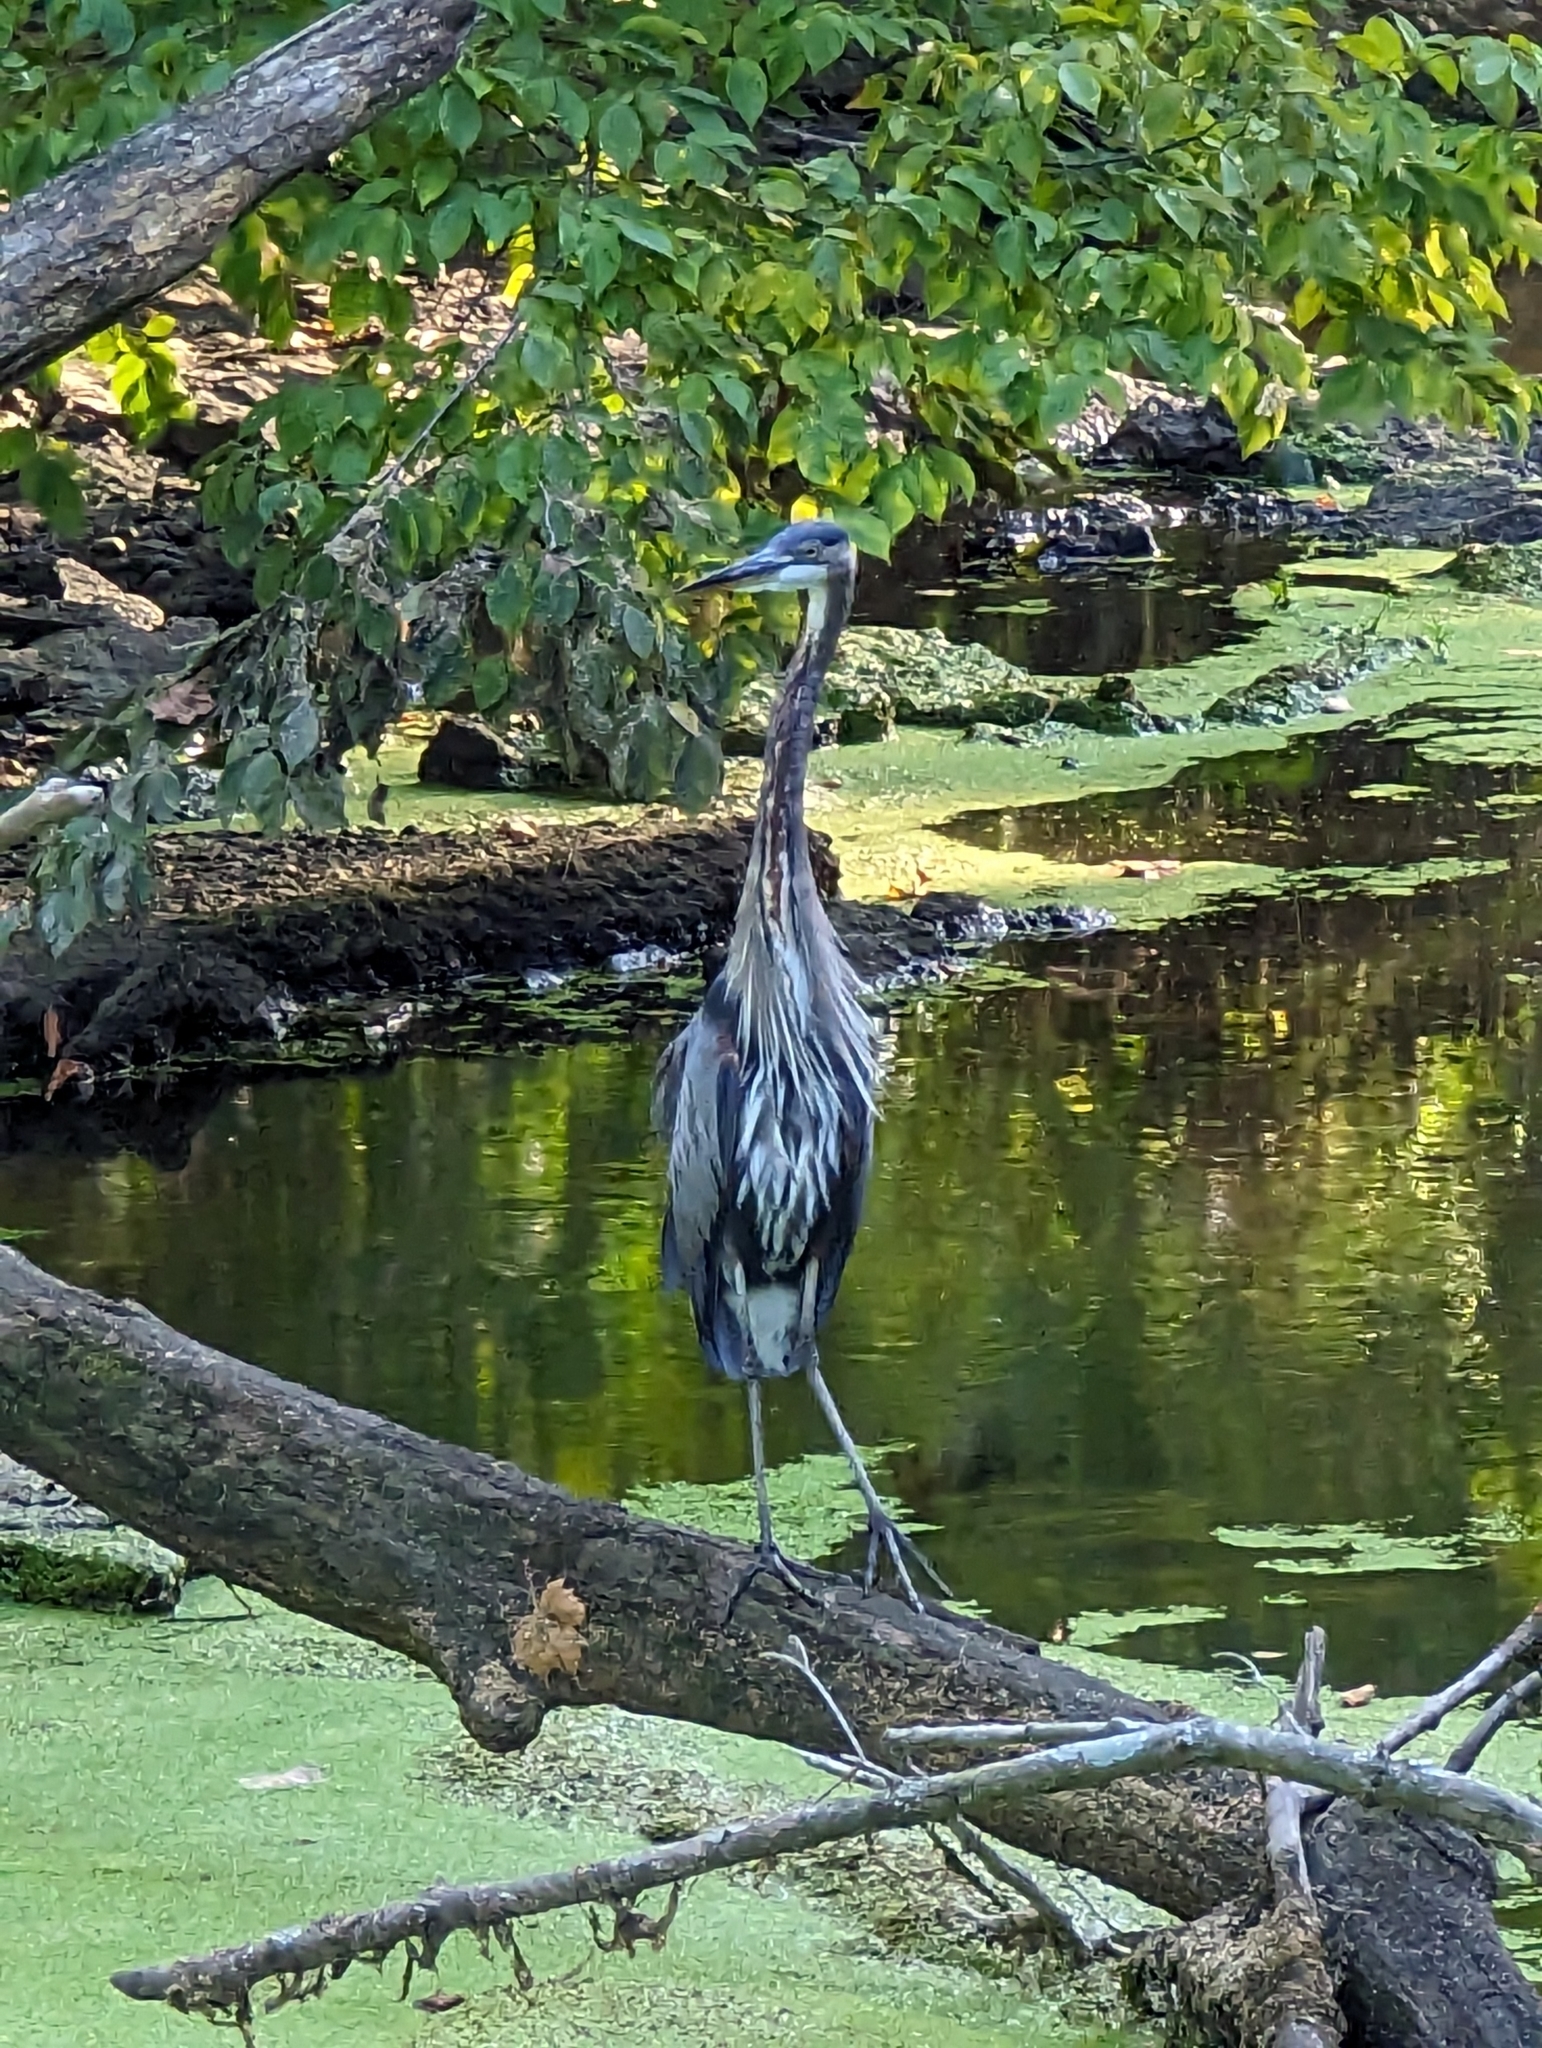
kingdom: Animalia
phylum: Chordata
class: Aves
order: Pelecaniformes
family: Ardeidae
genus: Ardea
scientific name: Ardea herodias
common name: Great blue heron
